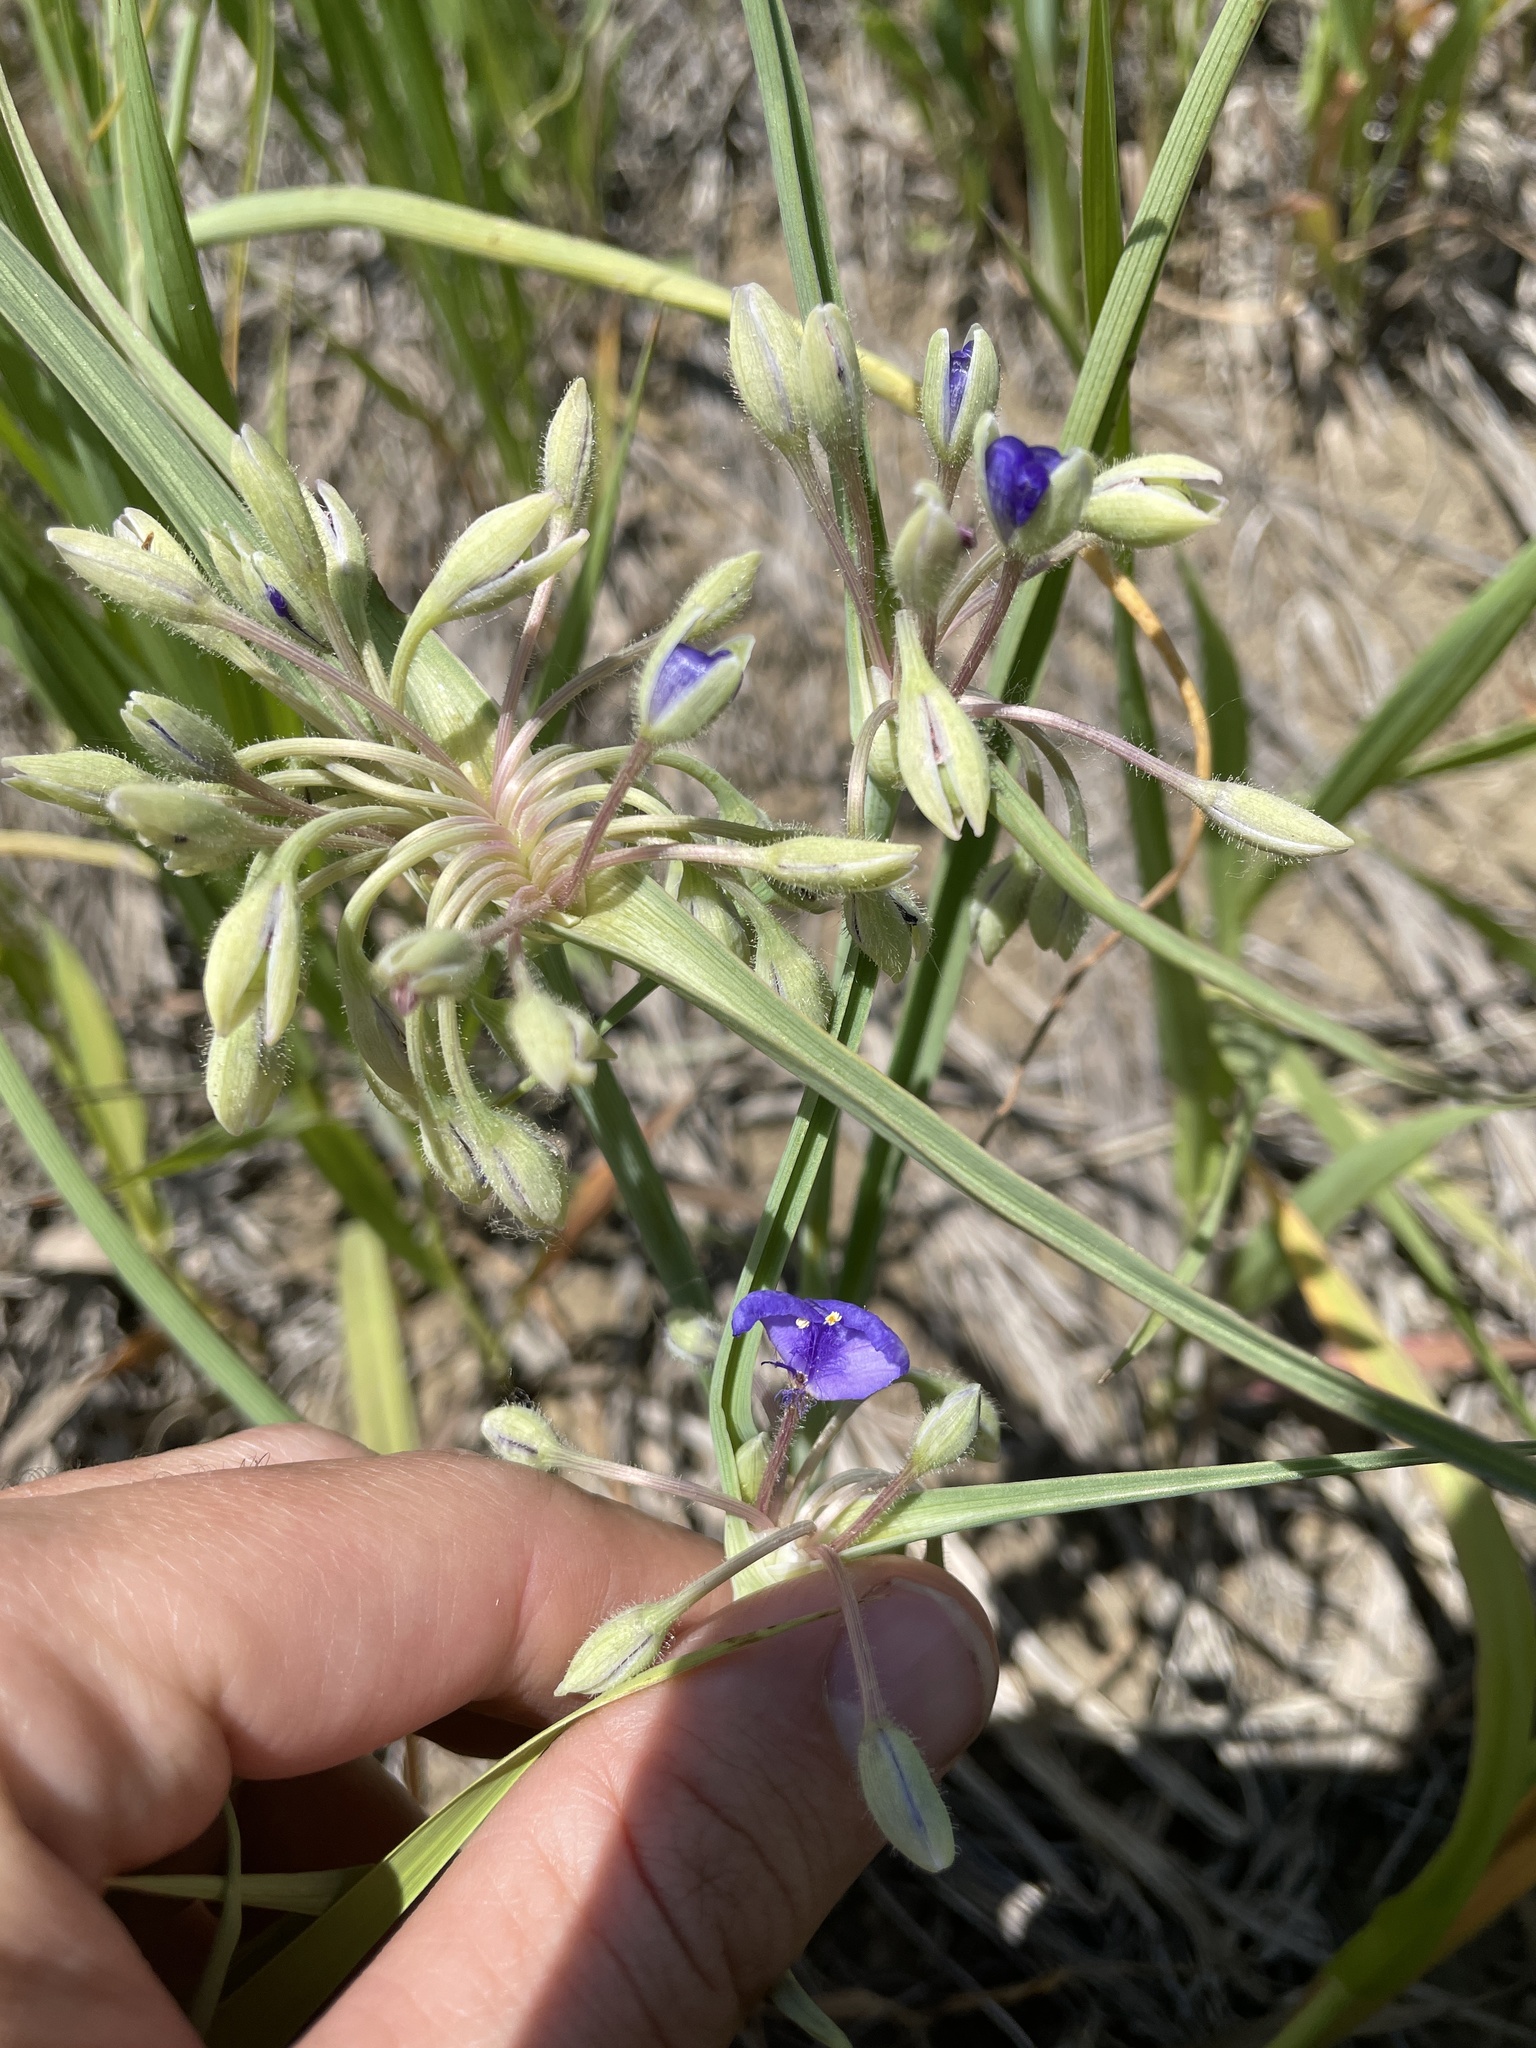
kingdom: Plantae
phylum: Tracheophyta
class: Liliopsida
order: Commelinales
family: Commelinaceae
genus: Tradescantia
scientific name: Tradescantia occidentalis
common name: Prairie spiderwort
